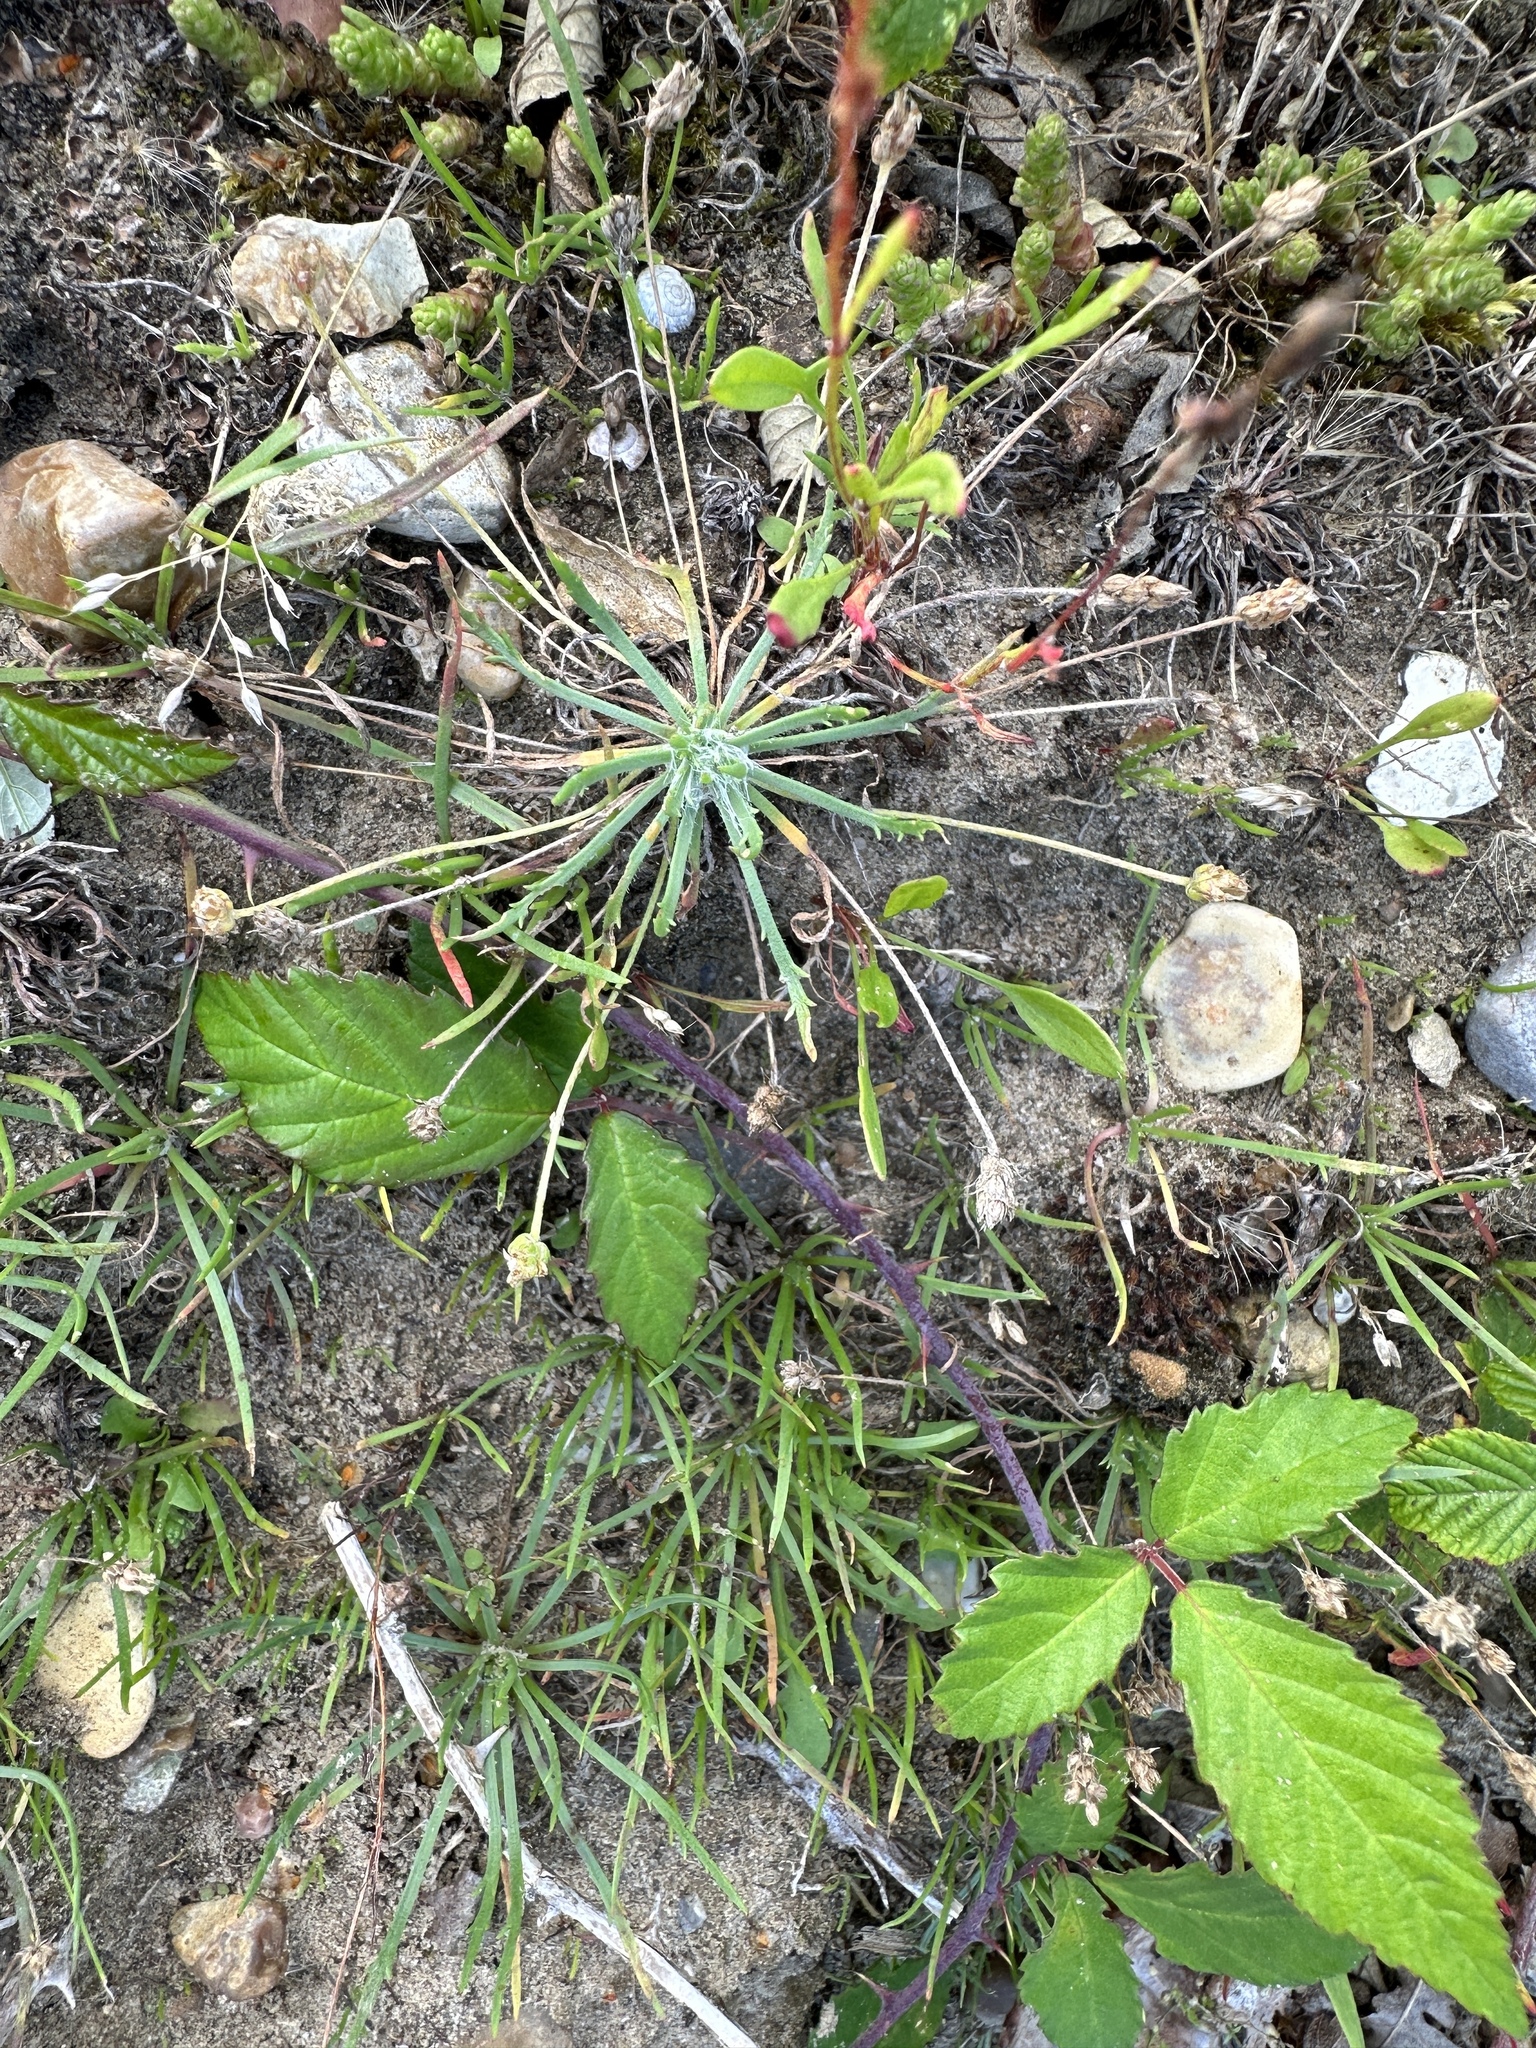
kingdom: Plantae
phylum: Tracheophyta
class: Magnoliopsida
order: Lamiales
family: Plantaginaceae
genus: Plantago
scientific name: Plantago coronopus
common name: Buck's-horn plantain
